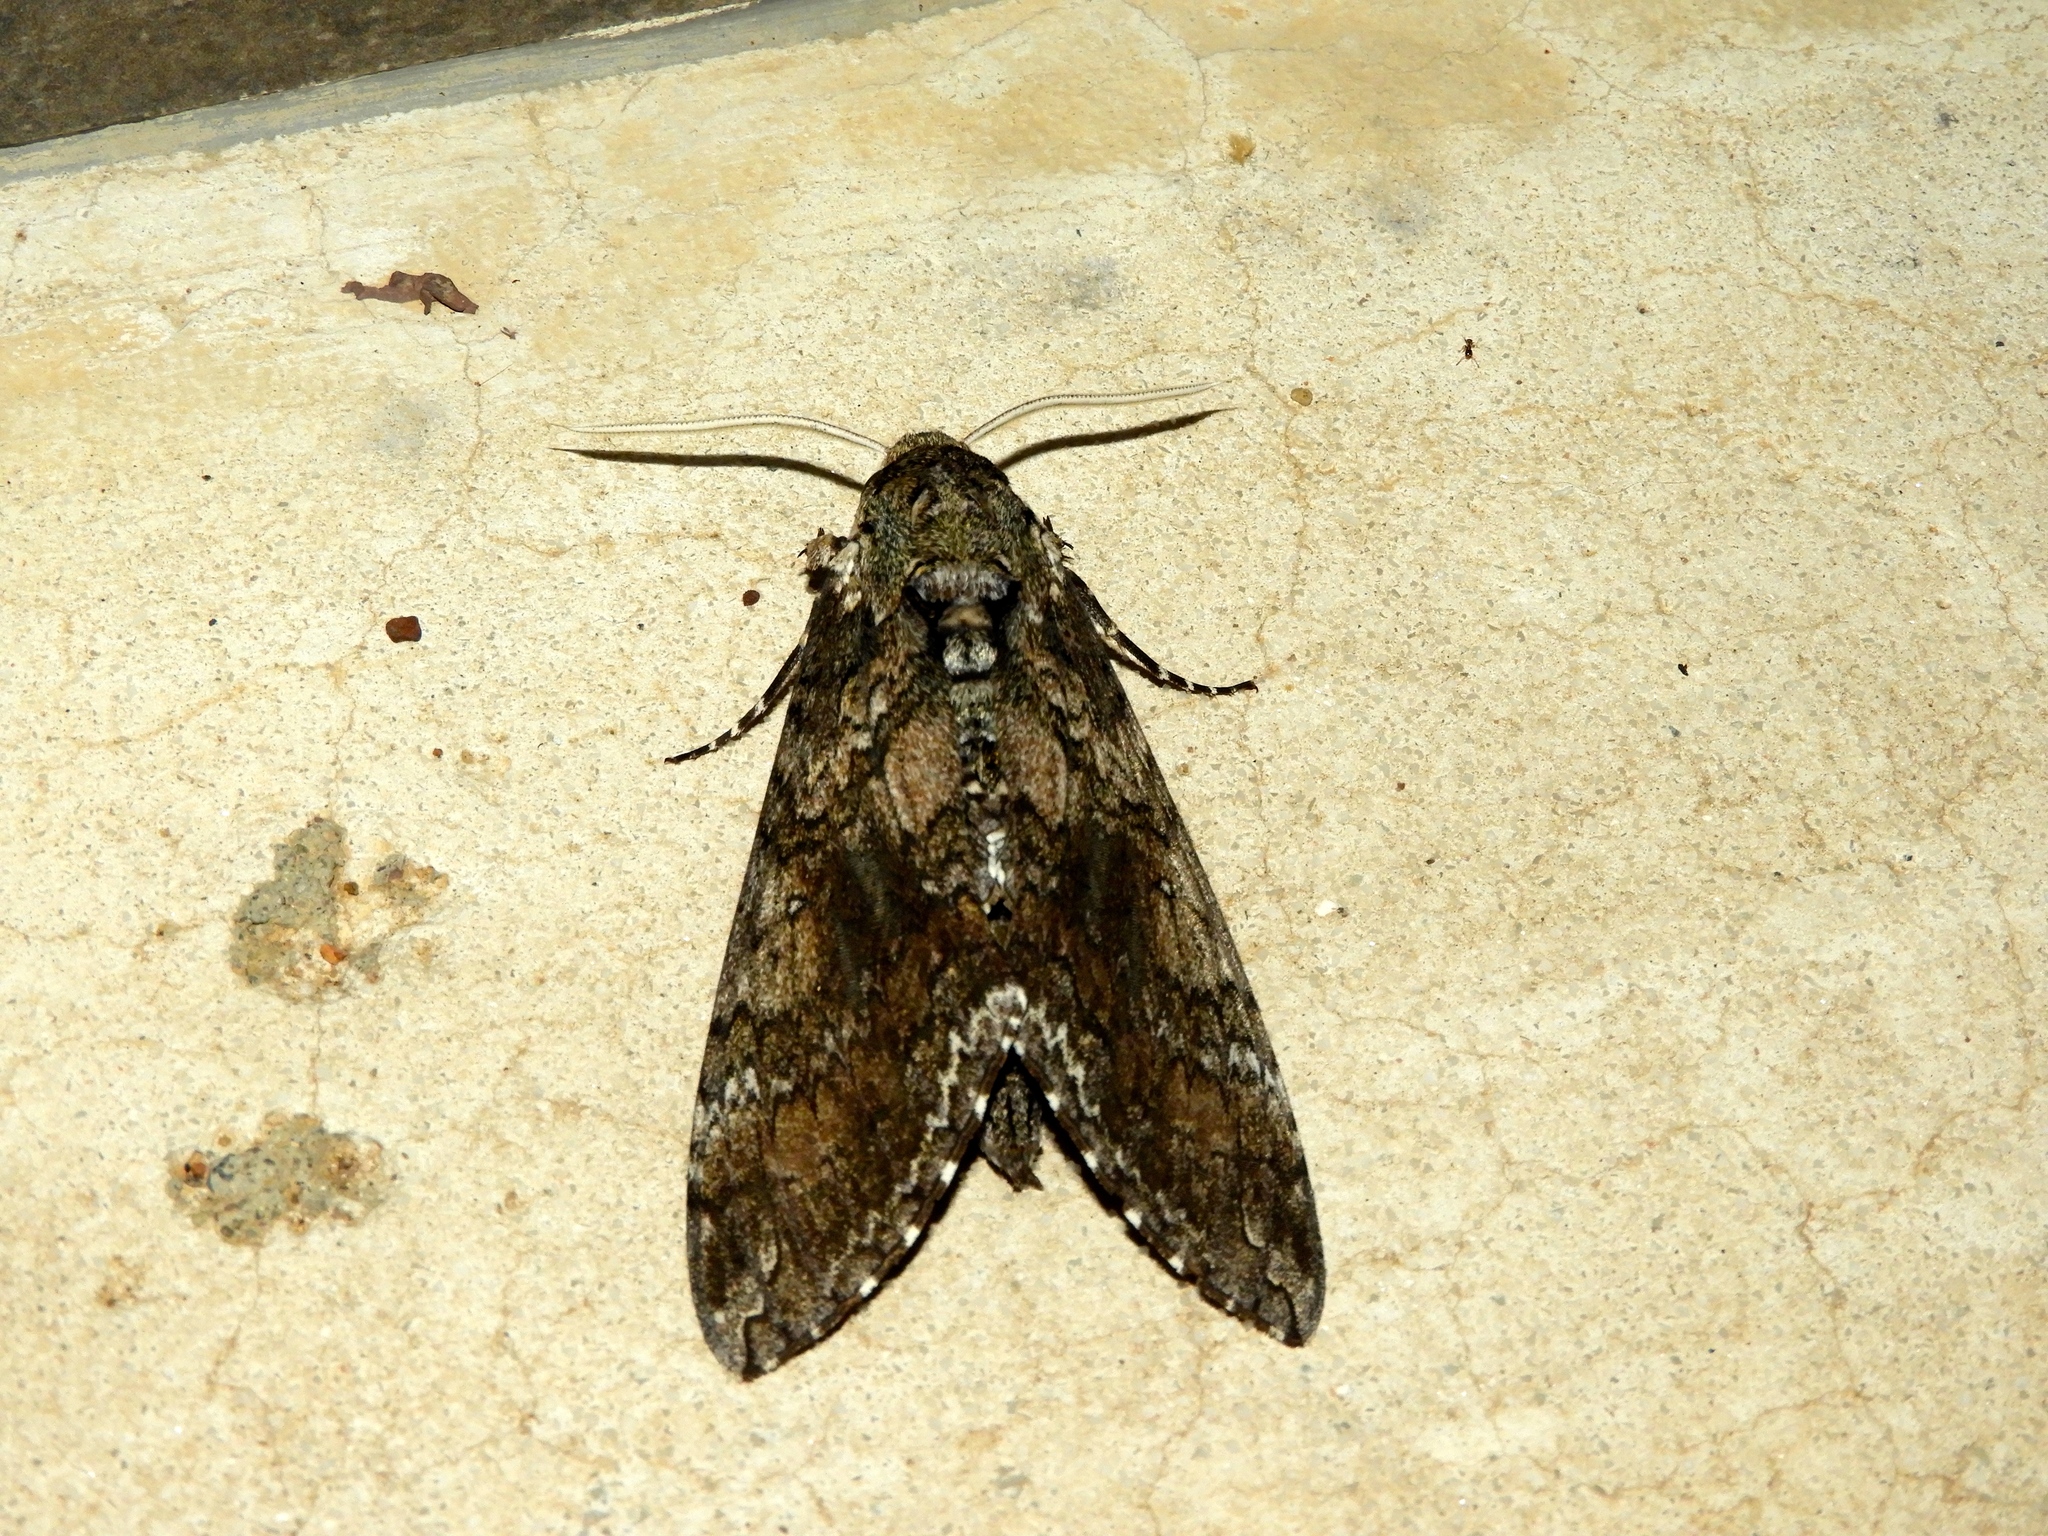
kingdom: Animalia
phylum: Arthropoda
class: Insecta
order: Lepidoptera
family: Sphingidae
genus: Manduca
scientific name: Manduca sexta
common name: Carolina sphinx
